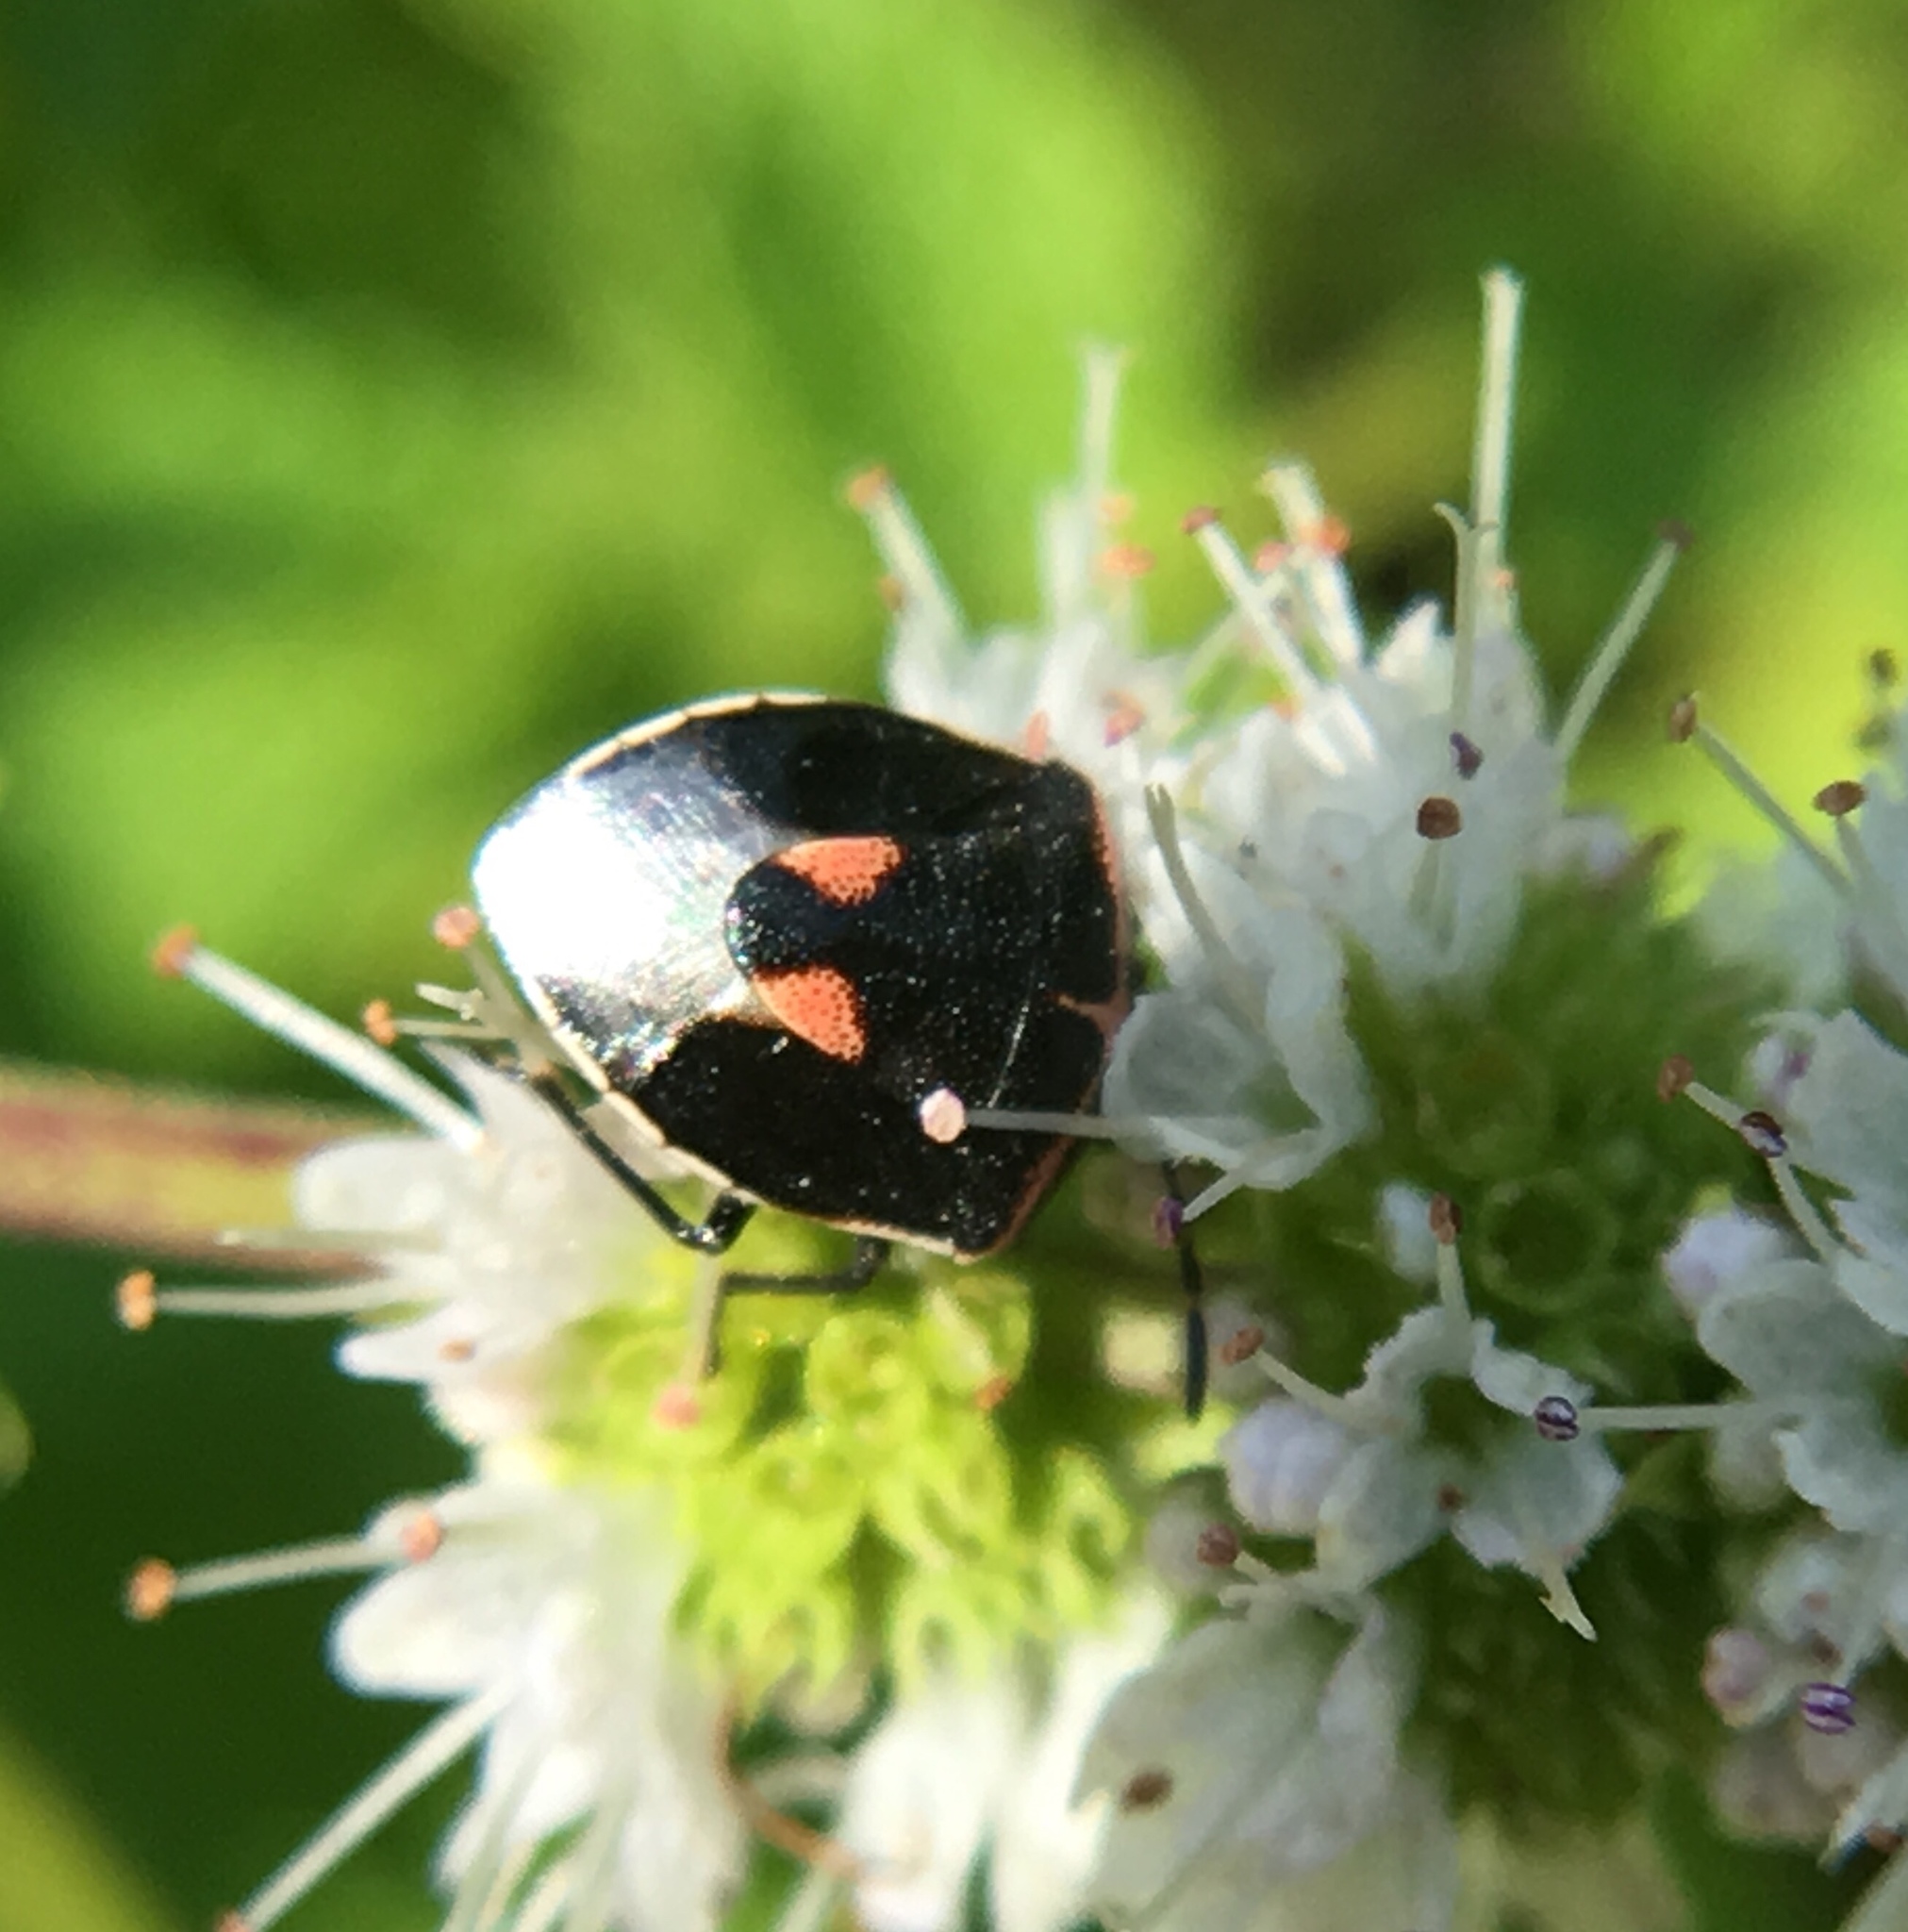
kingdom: Animalia
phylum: Arthropoda
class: Insecta
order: Hemiptera
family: Pentatomidae
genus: Cosmopepla
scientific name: Cosmopepla lintneriana
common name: Twice-stabbed stink bug
